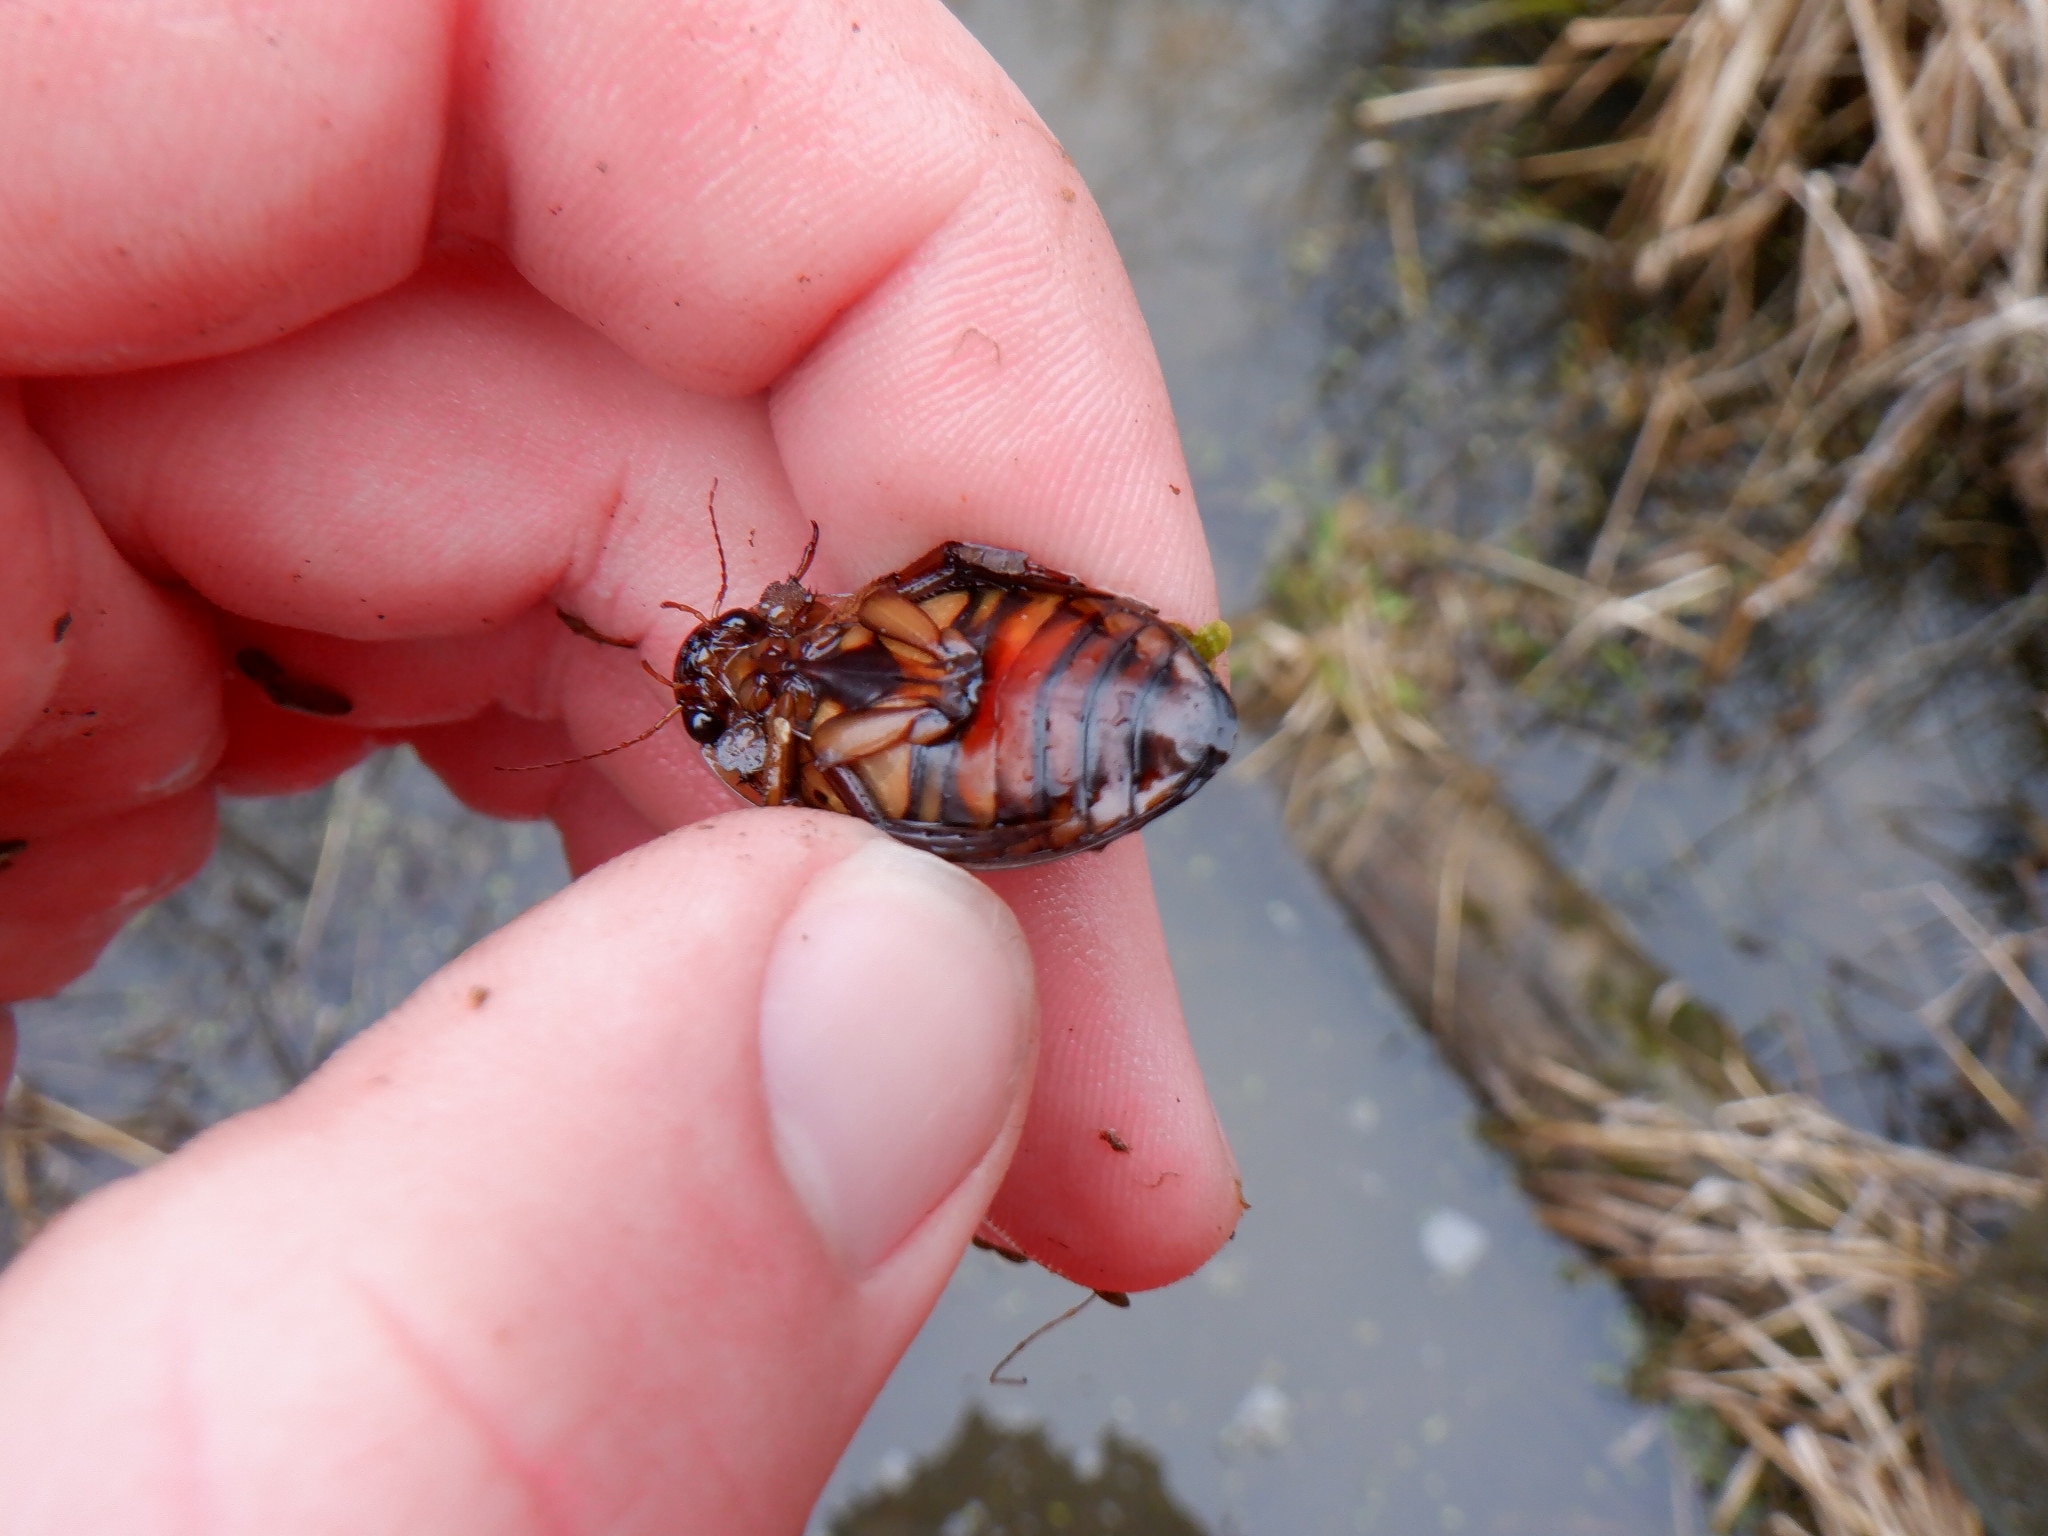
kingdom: Animalia
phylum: Arthropoda
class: Insecta
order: Coleoptera
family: Dytiscidae
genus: Dytiscus
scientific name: Dytiscus fasciventris
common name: Understriped diving beetle
